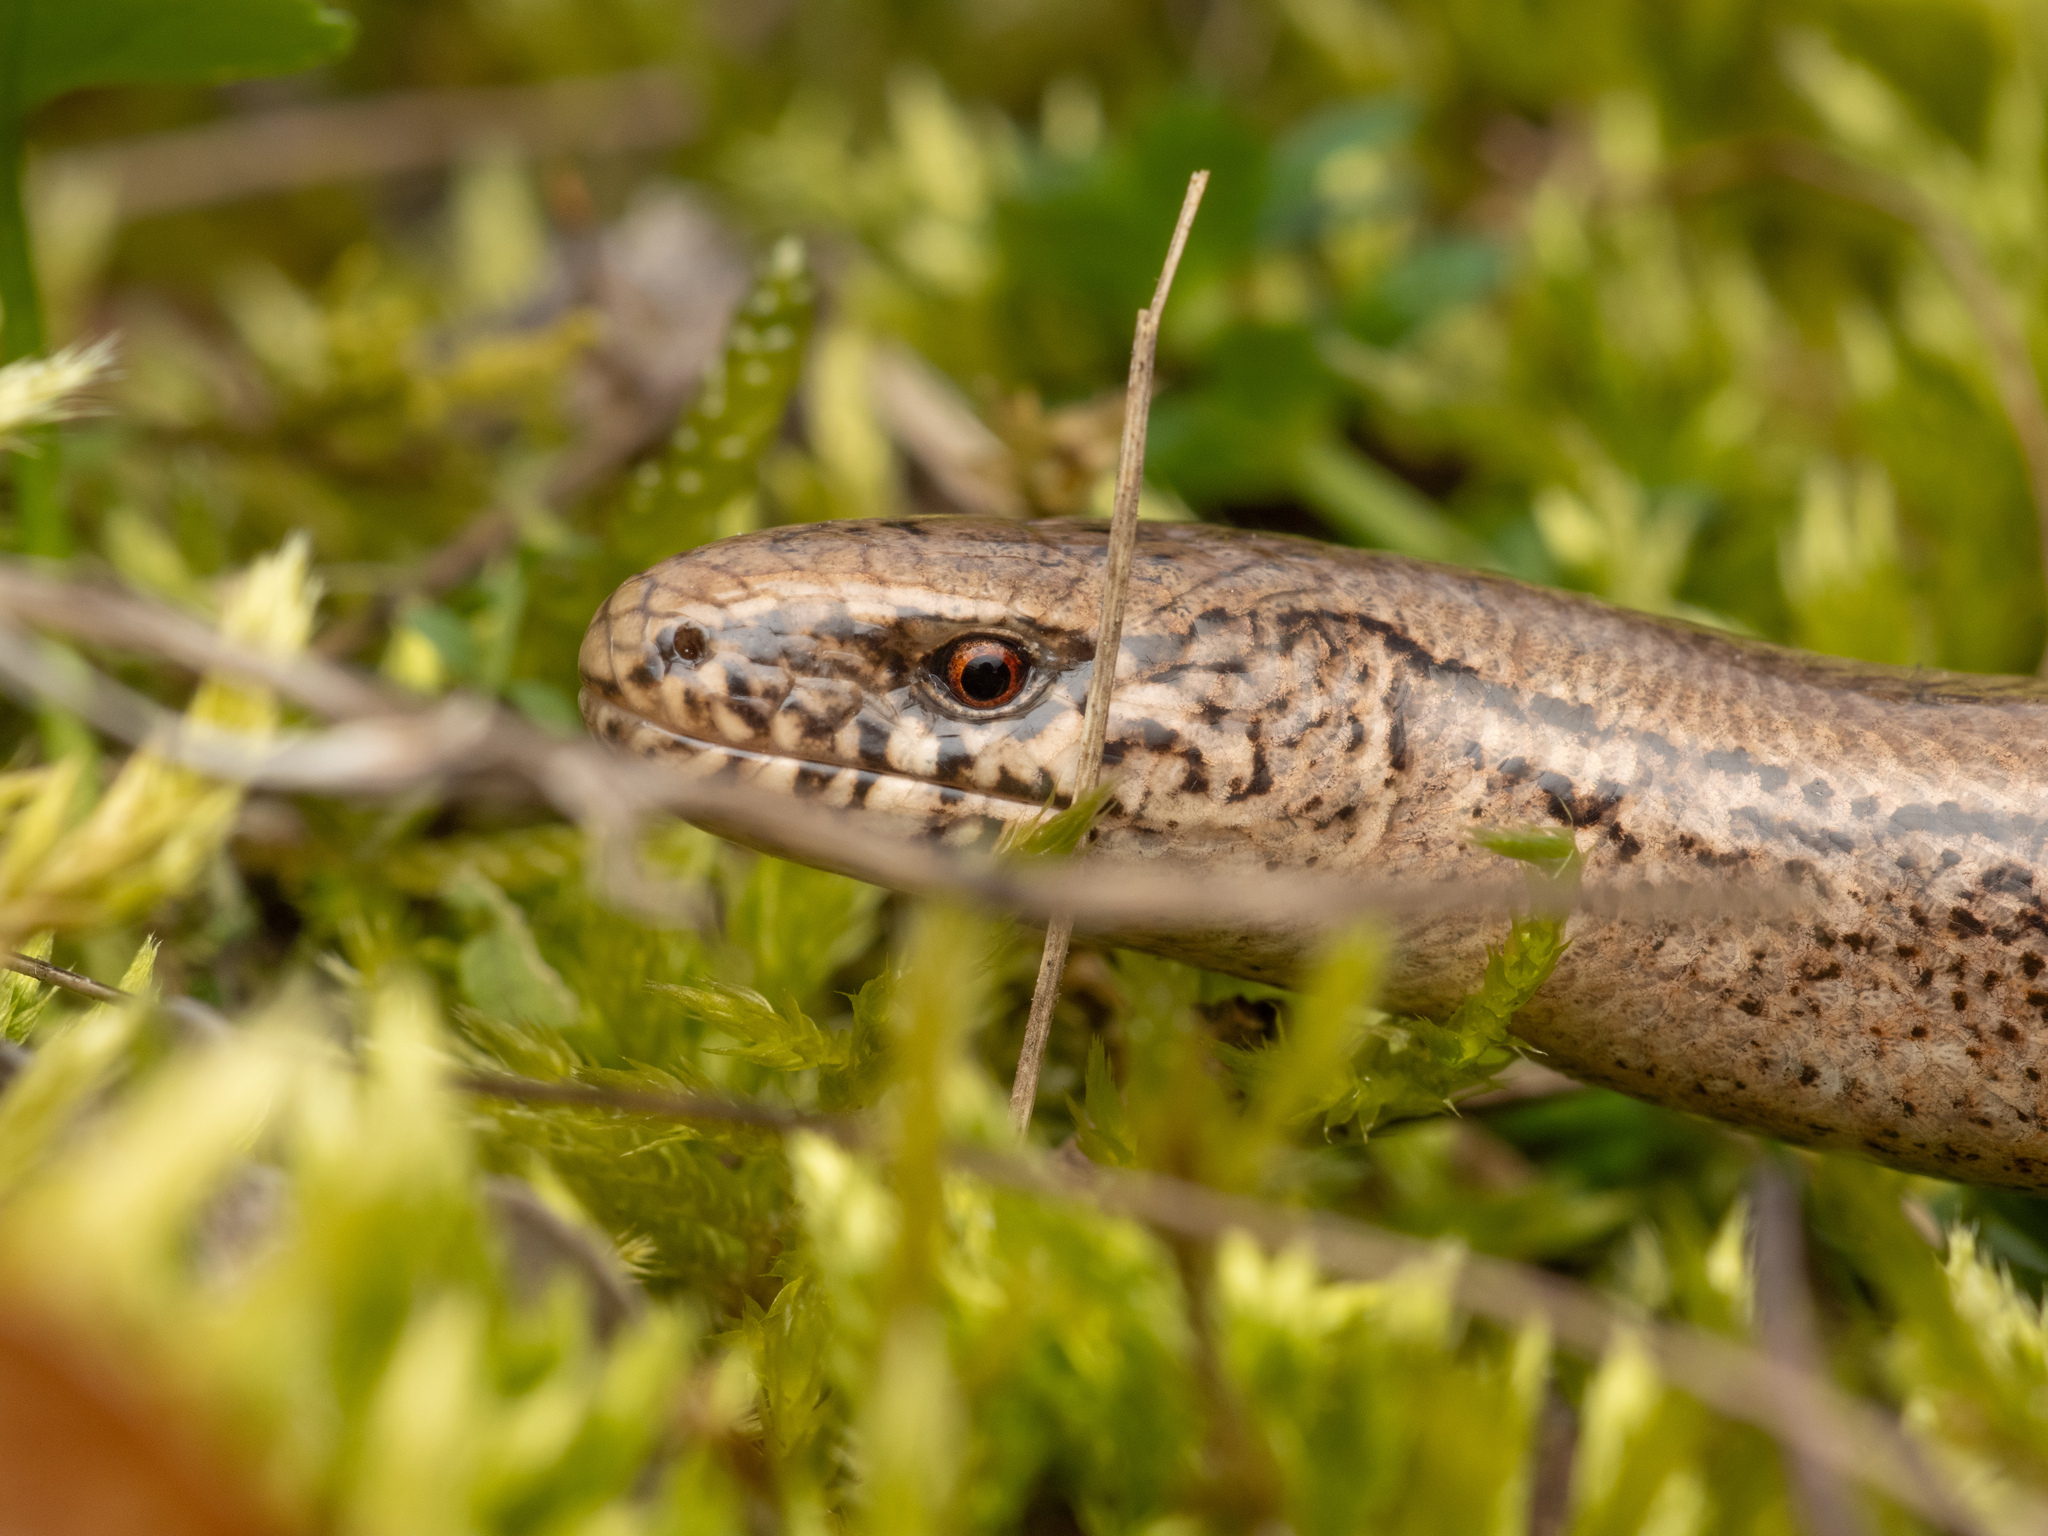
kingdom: Animalia
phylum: Chordata
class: Squamata
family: Anguidae
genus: Anguis
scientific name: Anguis fragilis
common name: Slow worm
